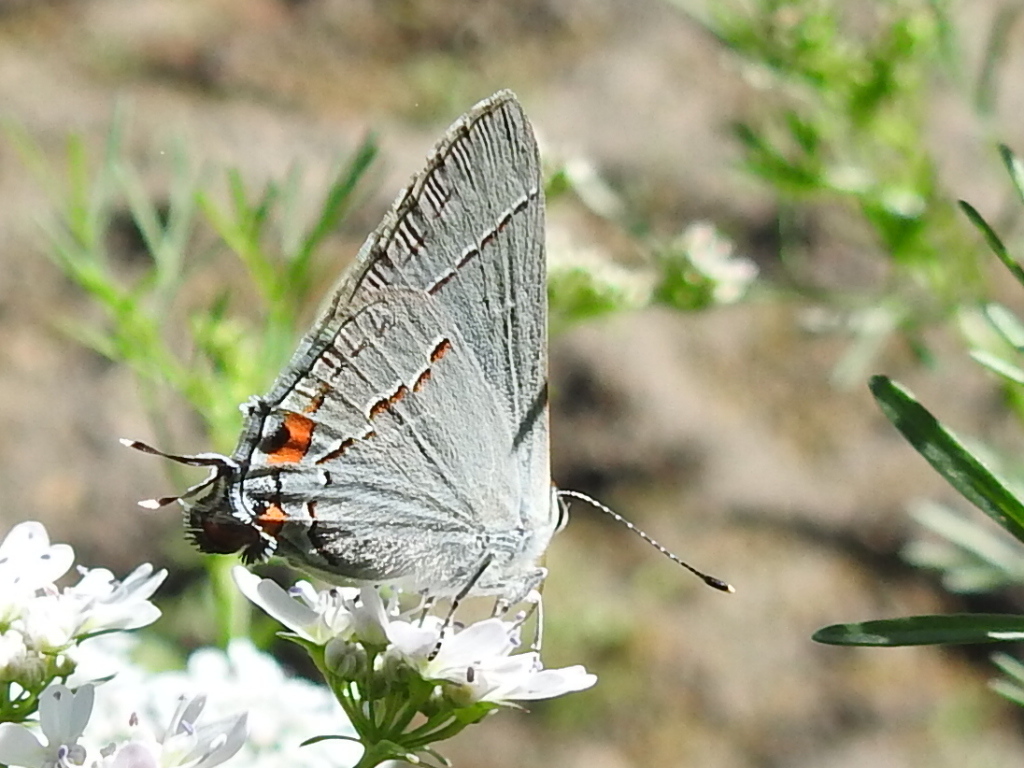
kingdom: Animalia
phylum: Arthropoda
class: Insecta
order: Lepidoptera
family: Lycaenidae
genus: Strymon
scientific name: Strymon melinus
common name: Gray hairstreak
